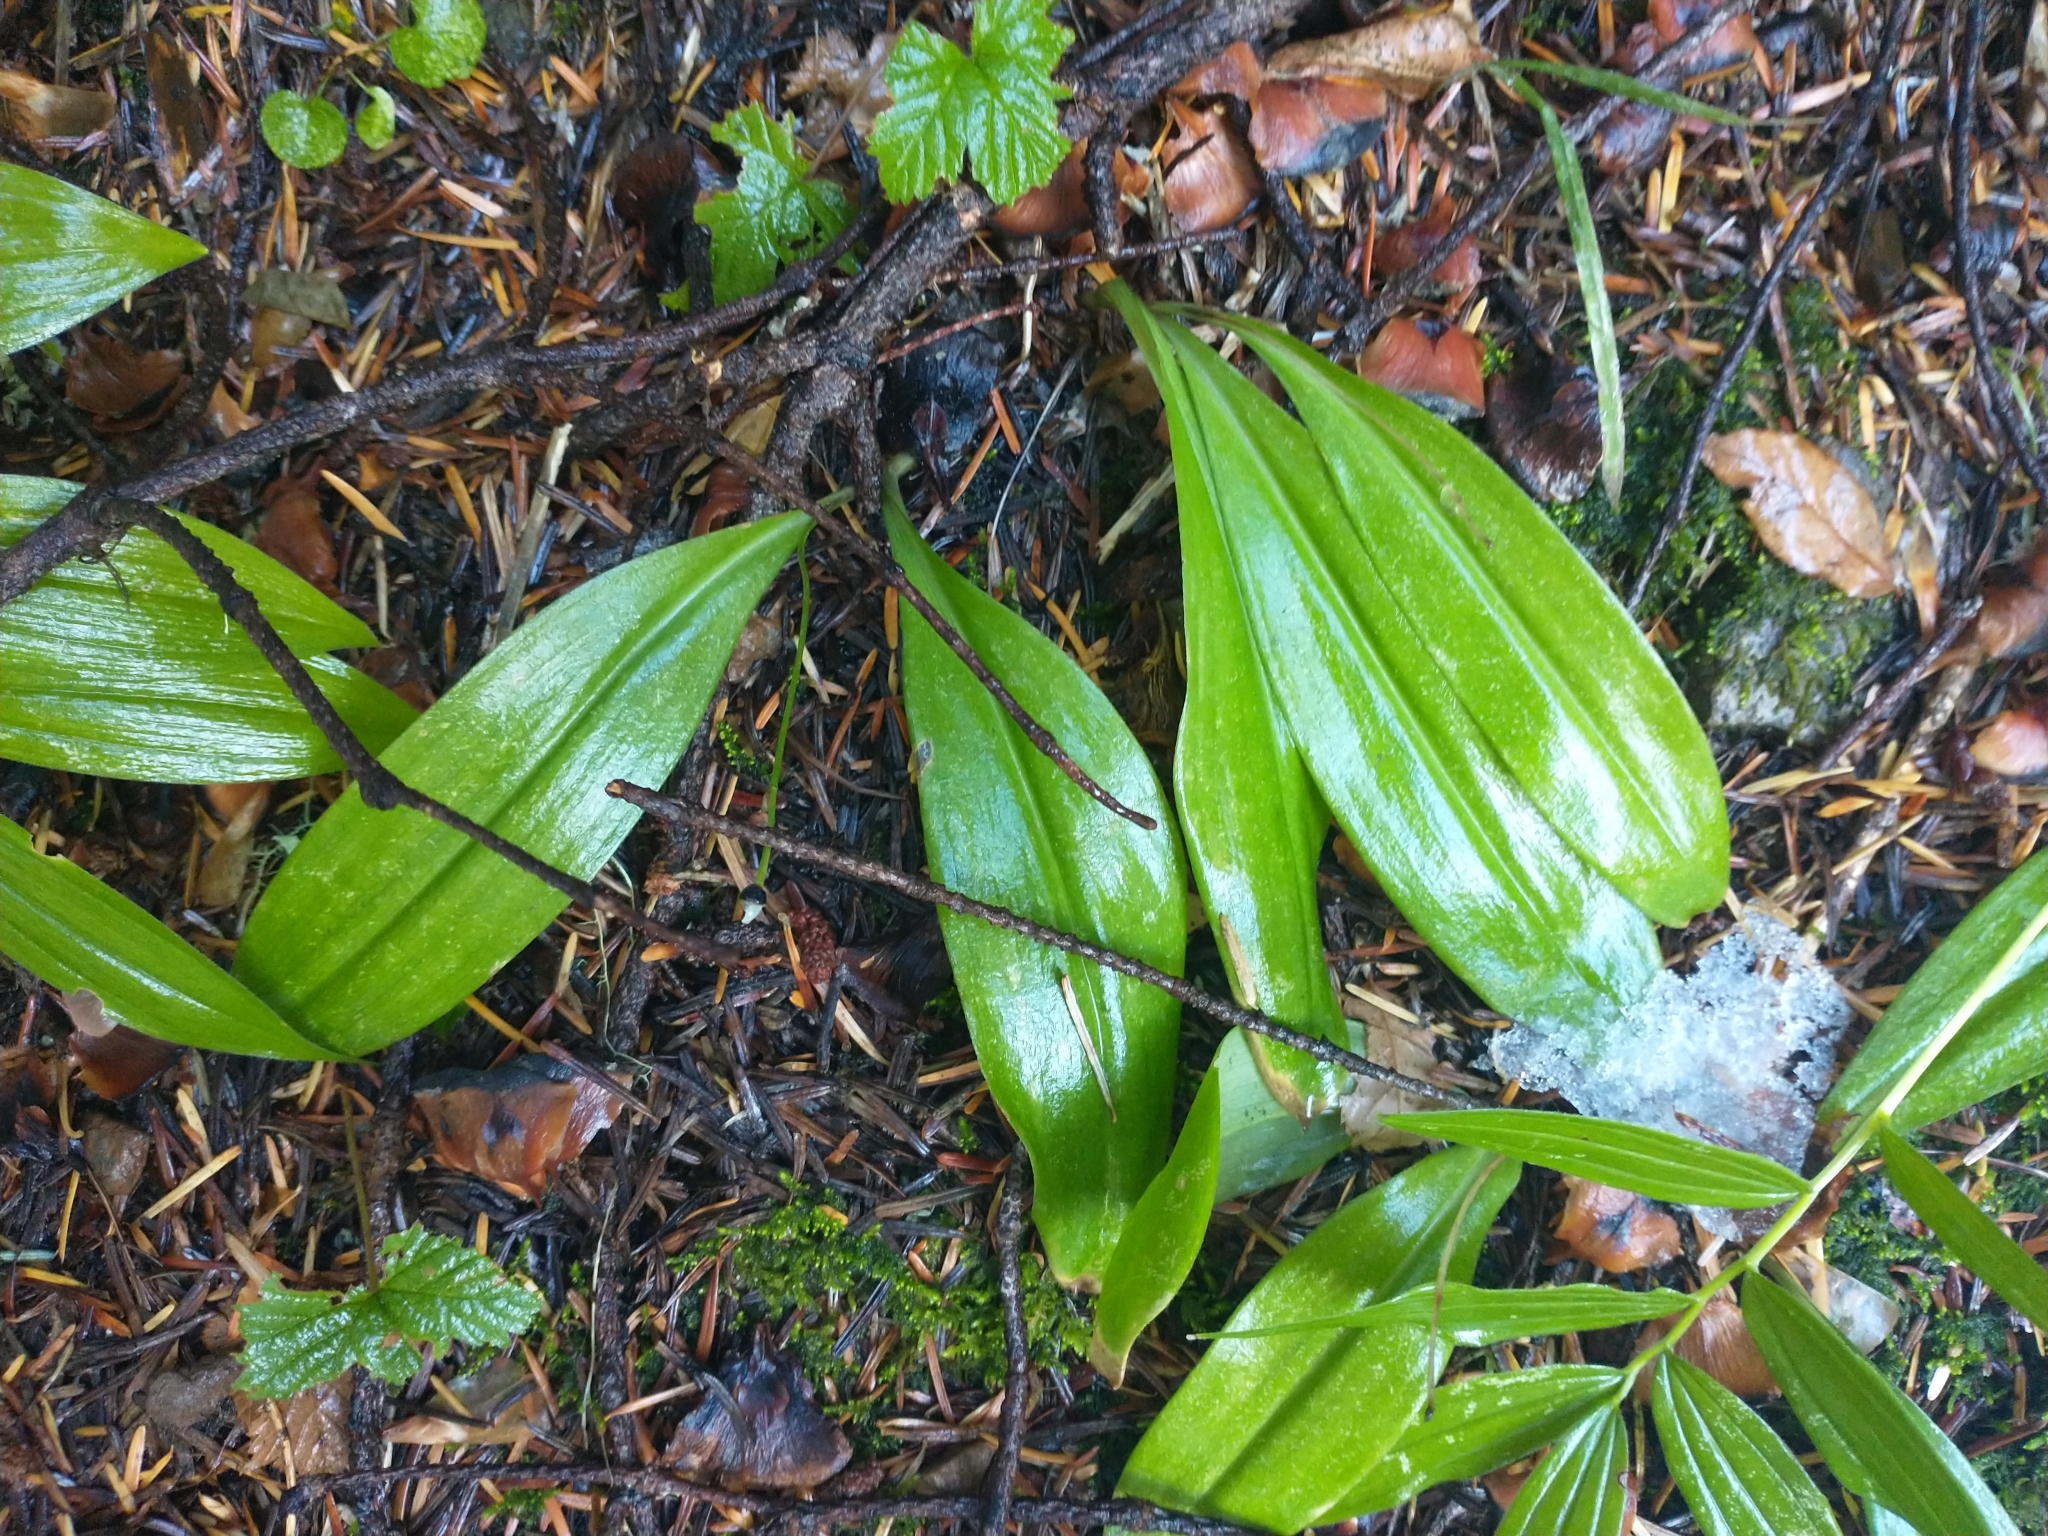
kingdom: Plantae
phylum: Tracheophyta
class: Liliopsida
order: Liliales
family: Liliaceae
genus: Clintonia
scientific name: Clintonia uniflora
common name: Queen's cup
